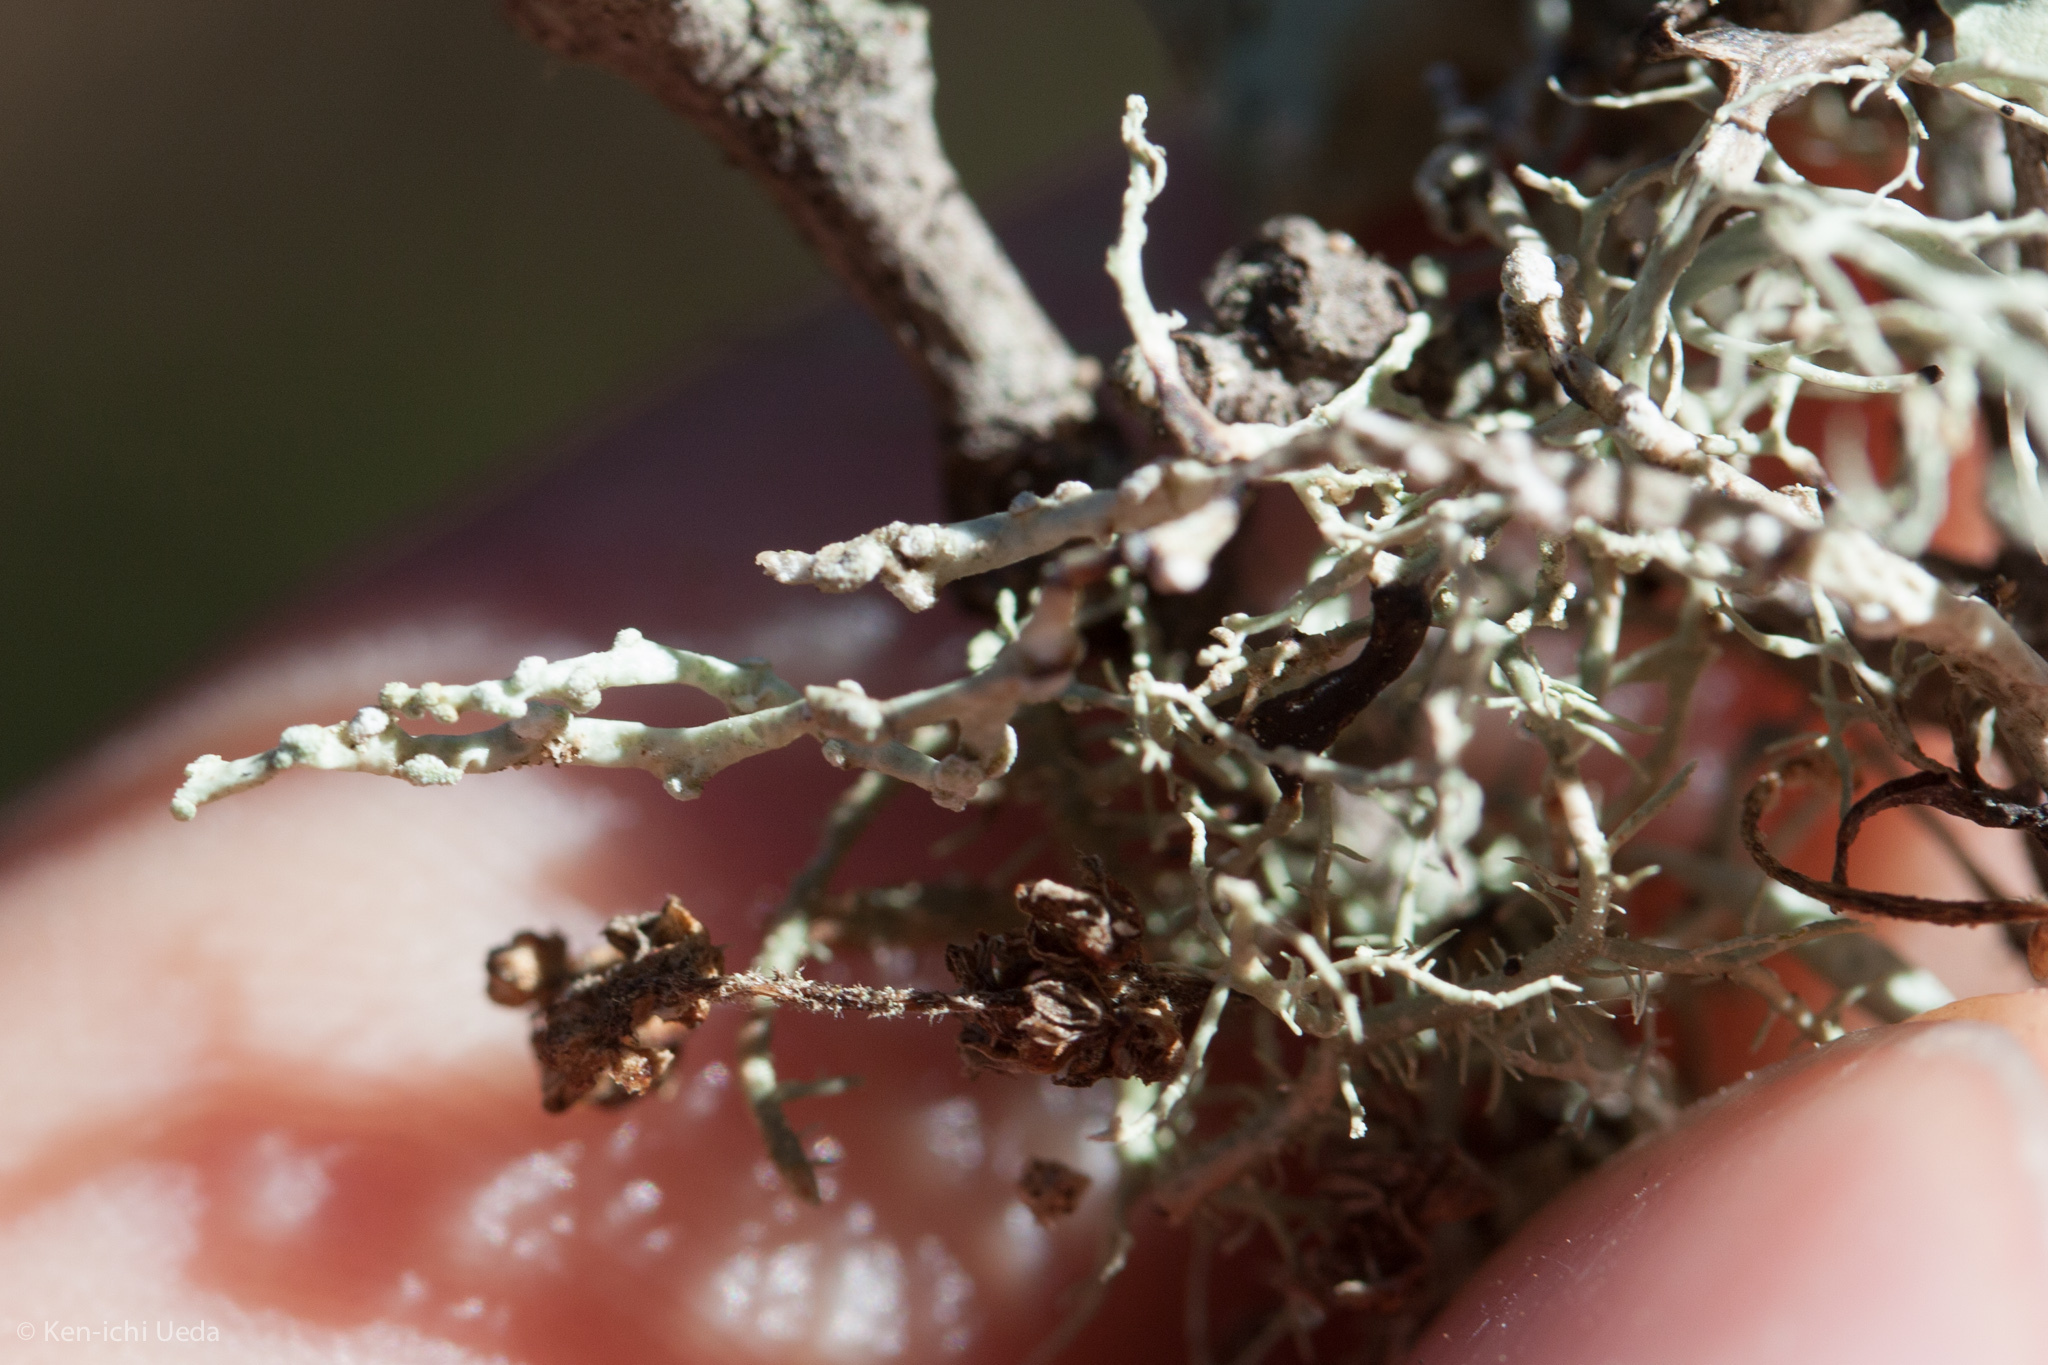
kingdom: Fungi
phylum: Ascomycota
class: Lecanoromycetes
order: Lecanorales
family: Ramalinaceae
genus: Niebla
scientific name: Niebla cephalota
